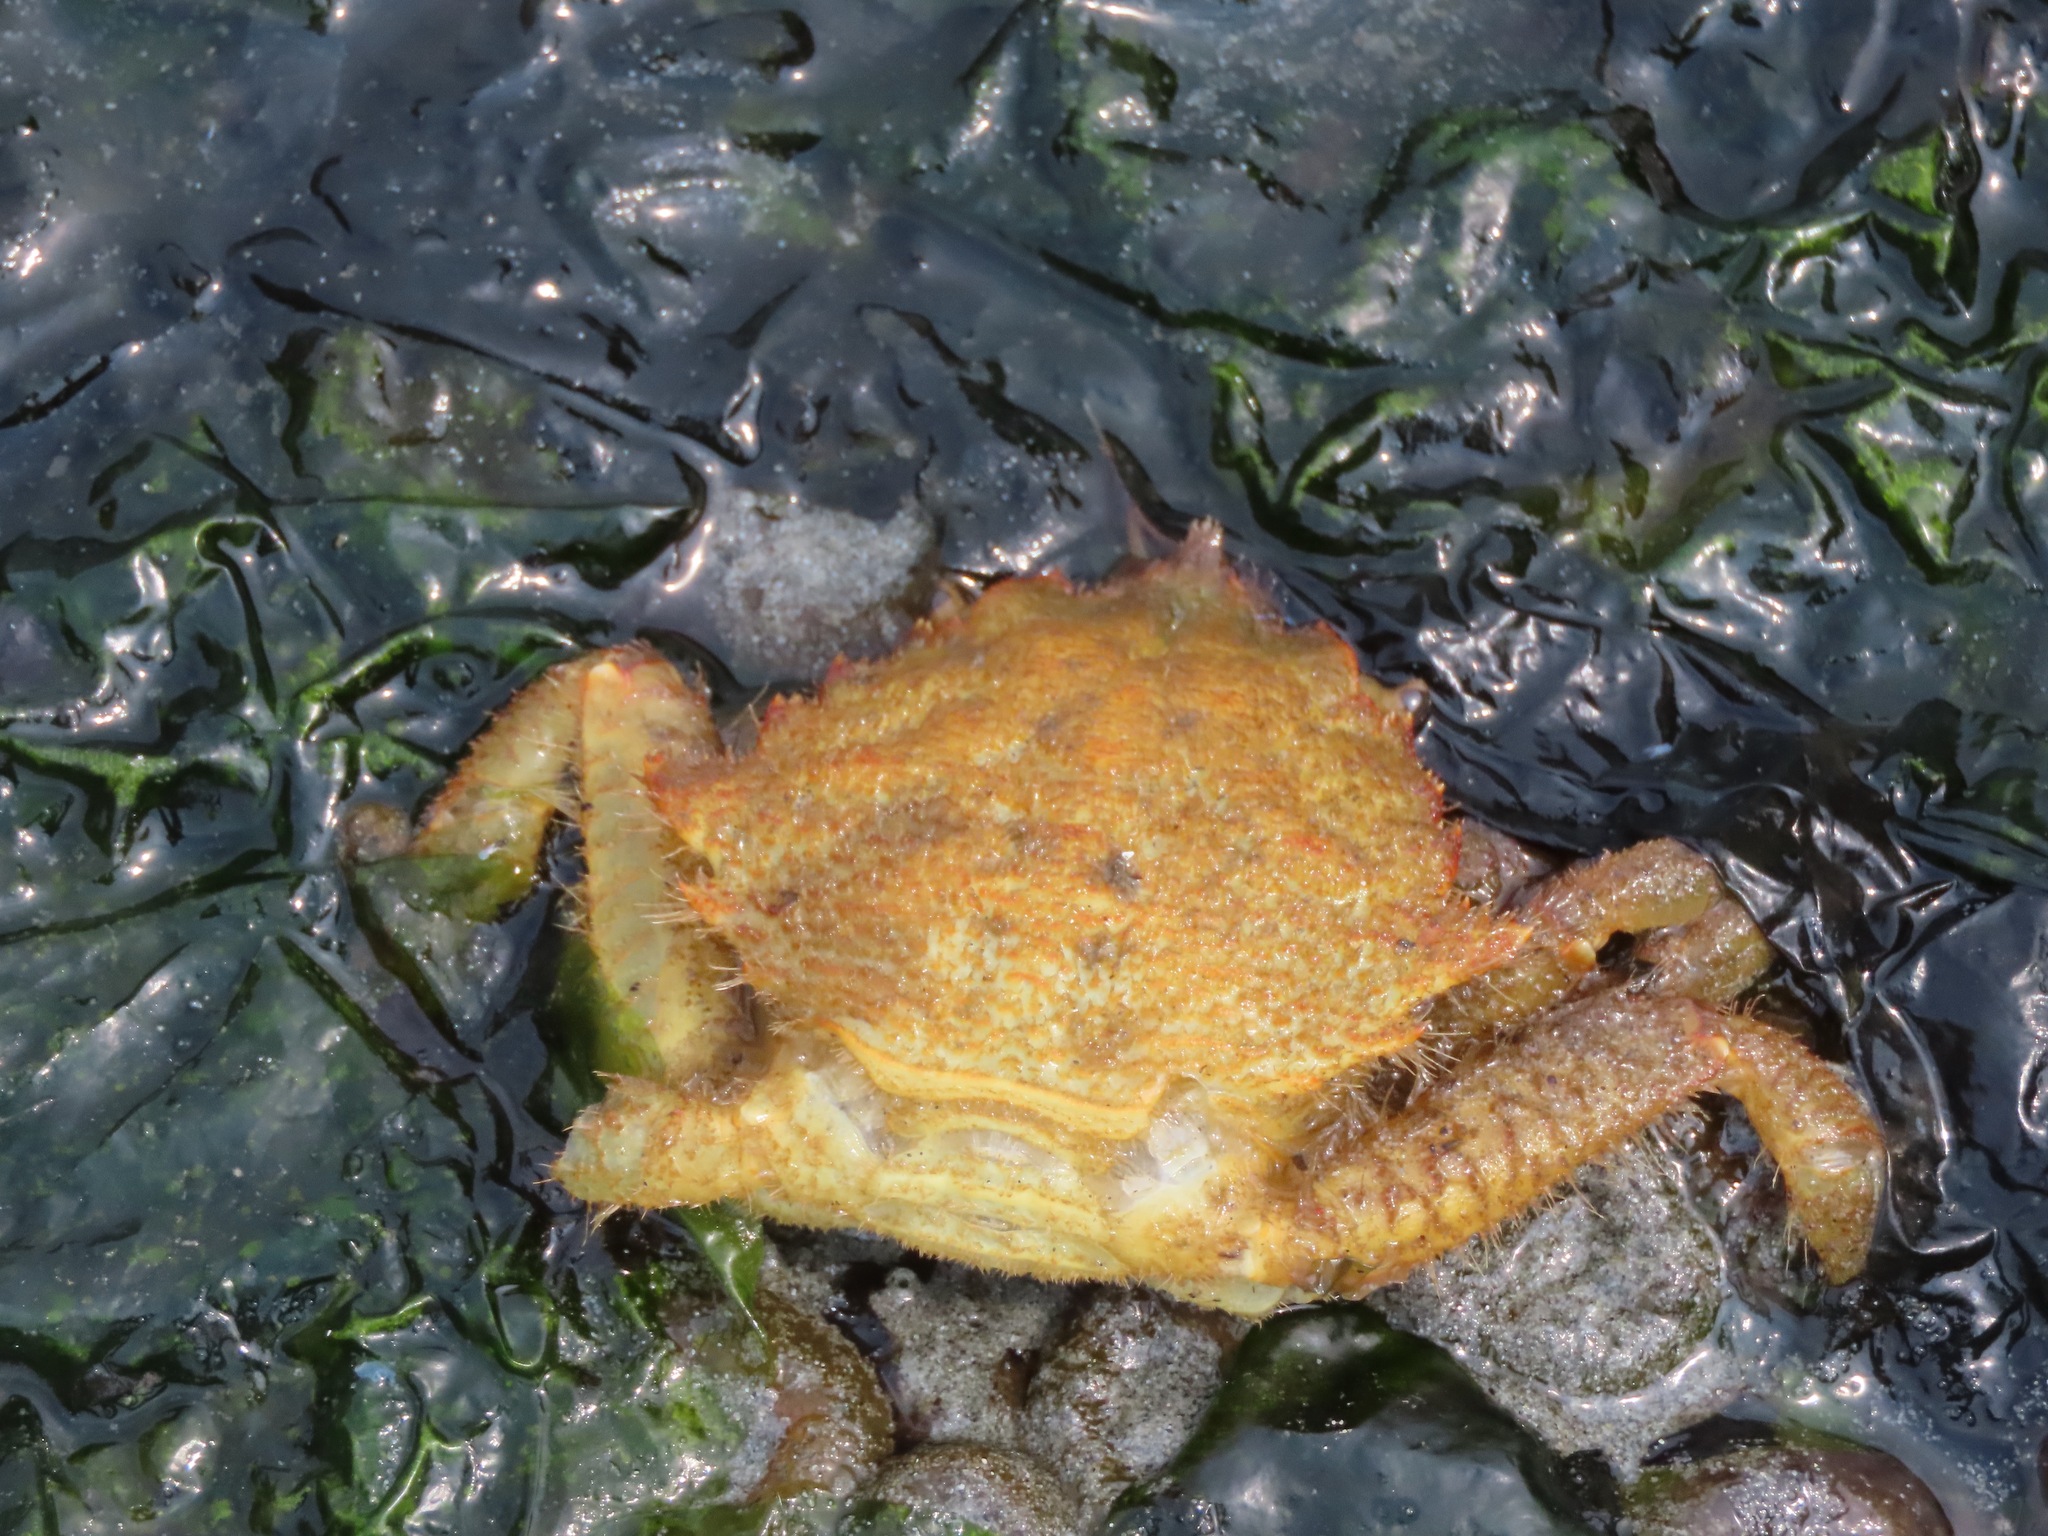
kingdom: Animalia
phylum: Arthropoda
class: Malacostraca
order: Decapoda
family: Cheiragonidae
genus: Telmessus
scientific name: Telmessus cheiragonus
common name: Helmet crab
